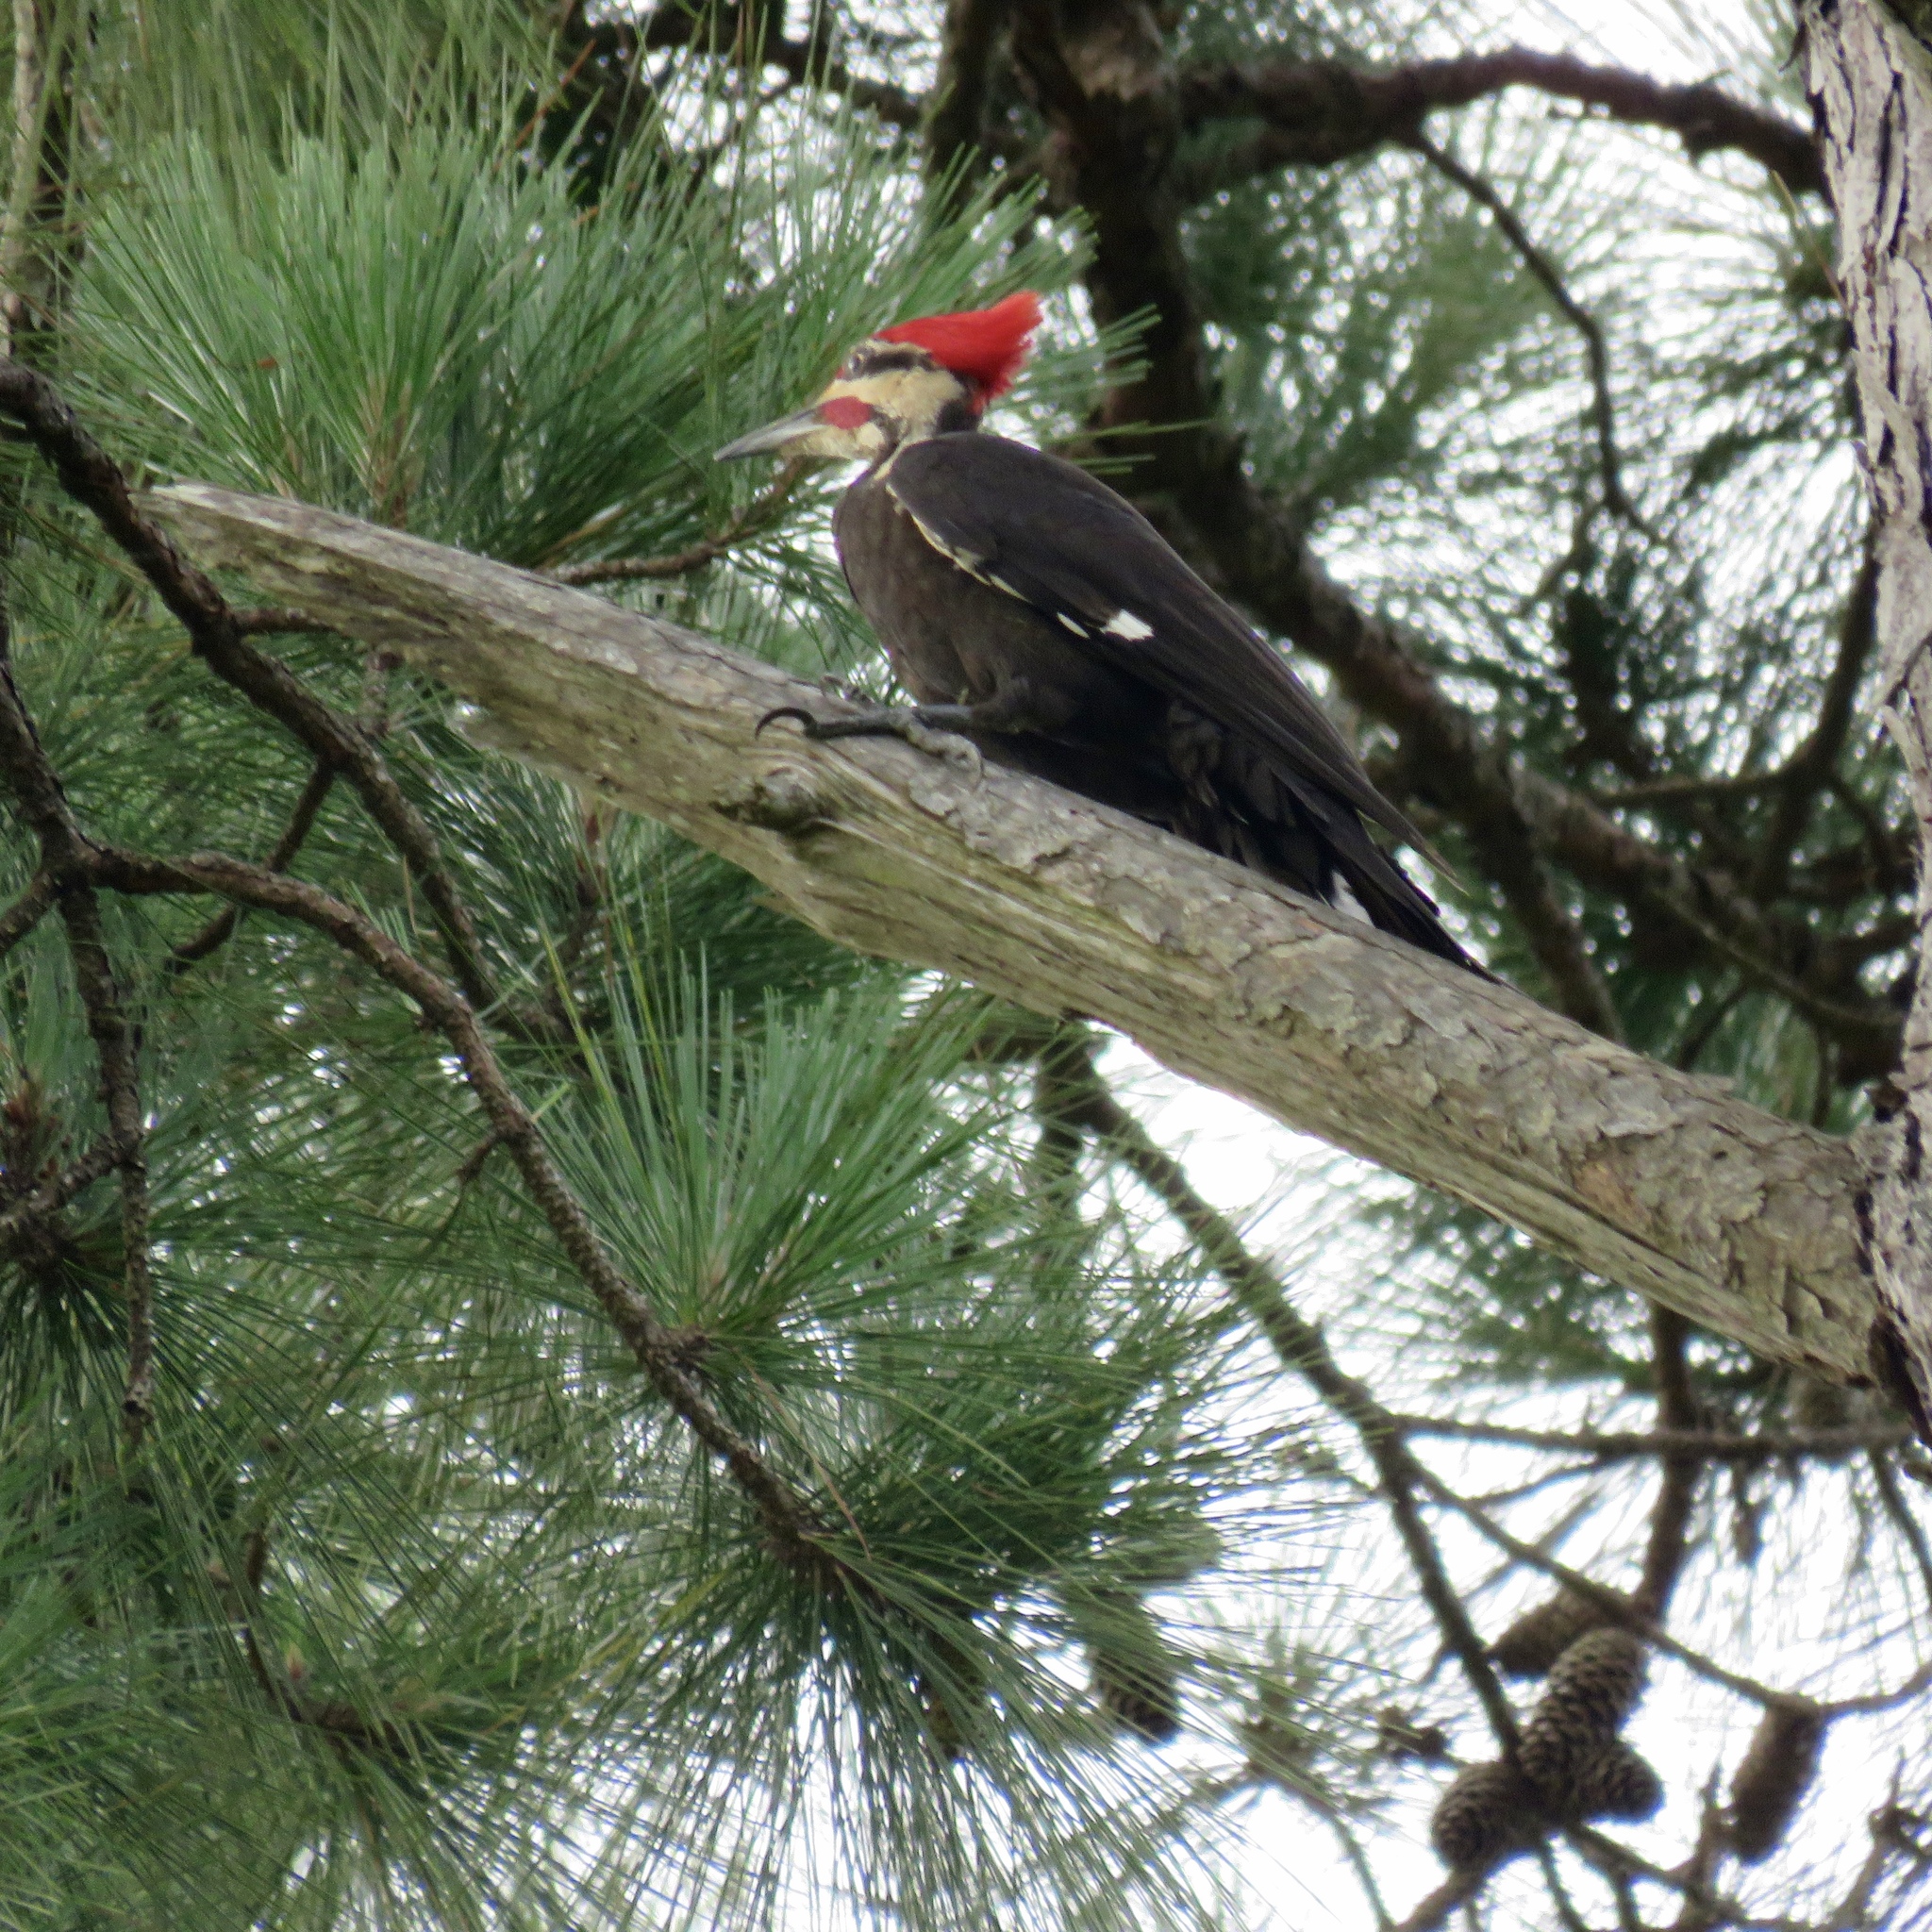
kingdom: Animalia
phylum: Chordata
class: Aves
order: Piciformes
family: Picidae
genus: Dryocopus
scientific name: Dryocopus pileatus
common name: Pileated woodpecker
